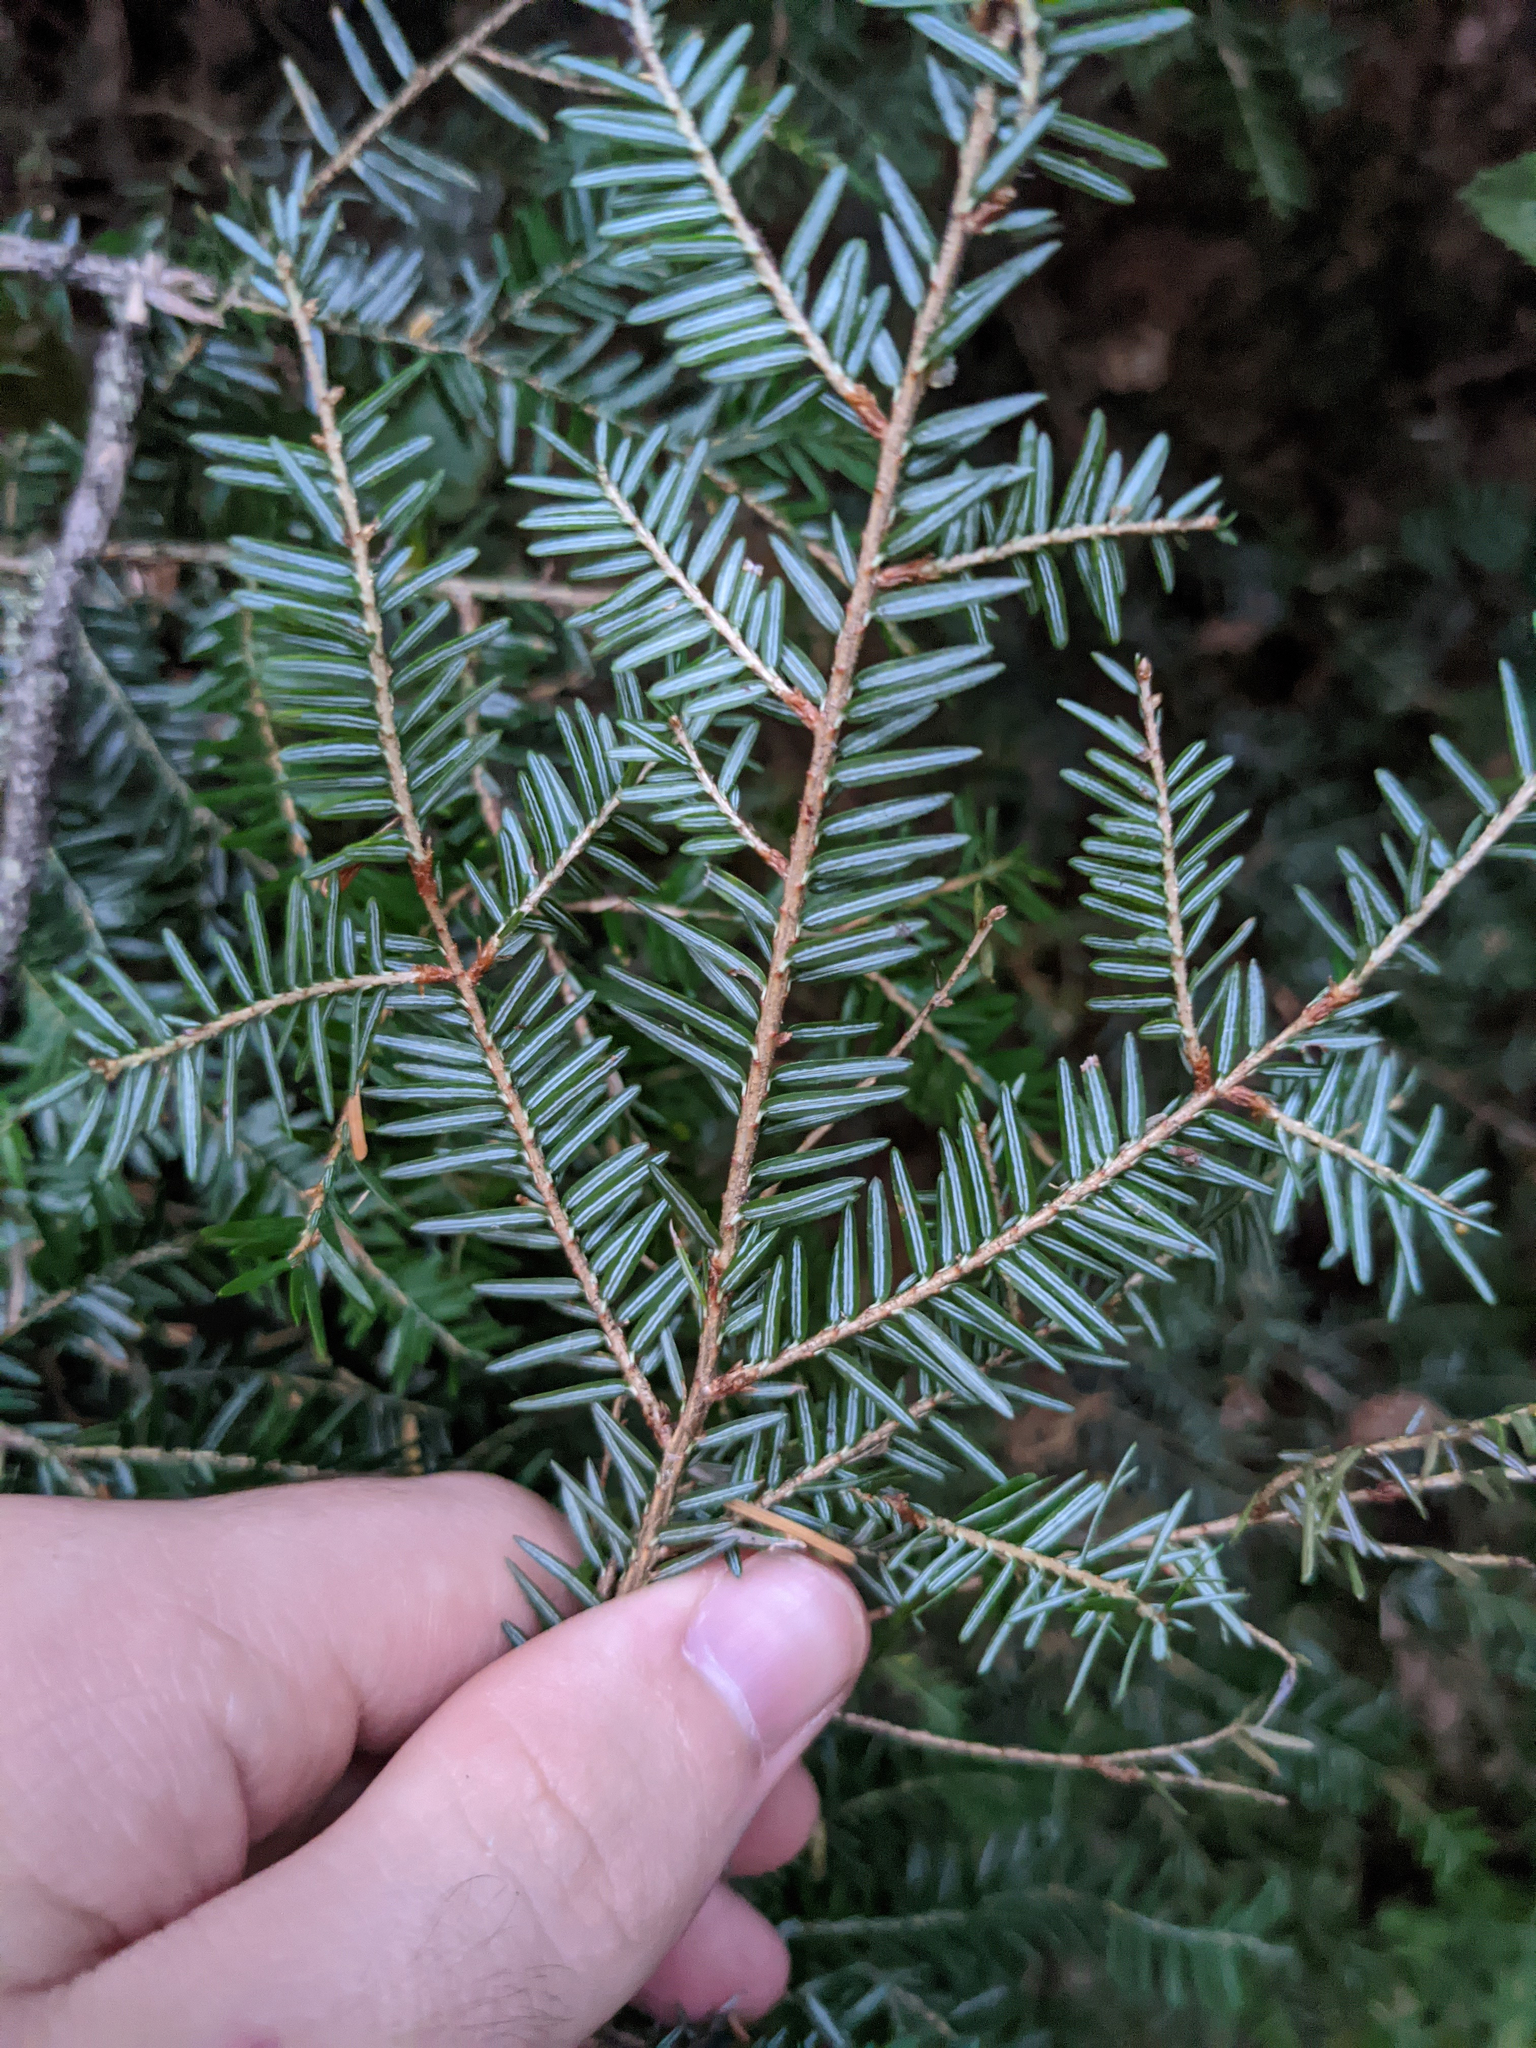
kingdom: Plantae
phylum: Tracheophyta
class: Pinopsida
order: Pinales
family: Pinaceae
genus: Tsuga
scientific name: Tsuga canadensis
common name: Eastern hemlock
